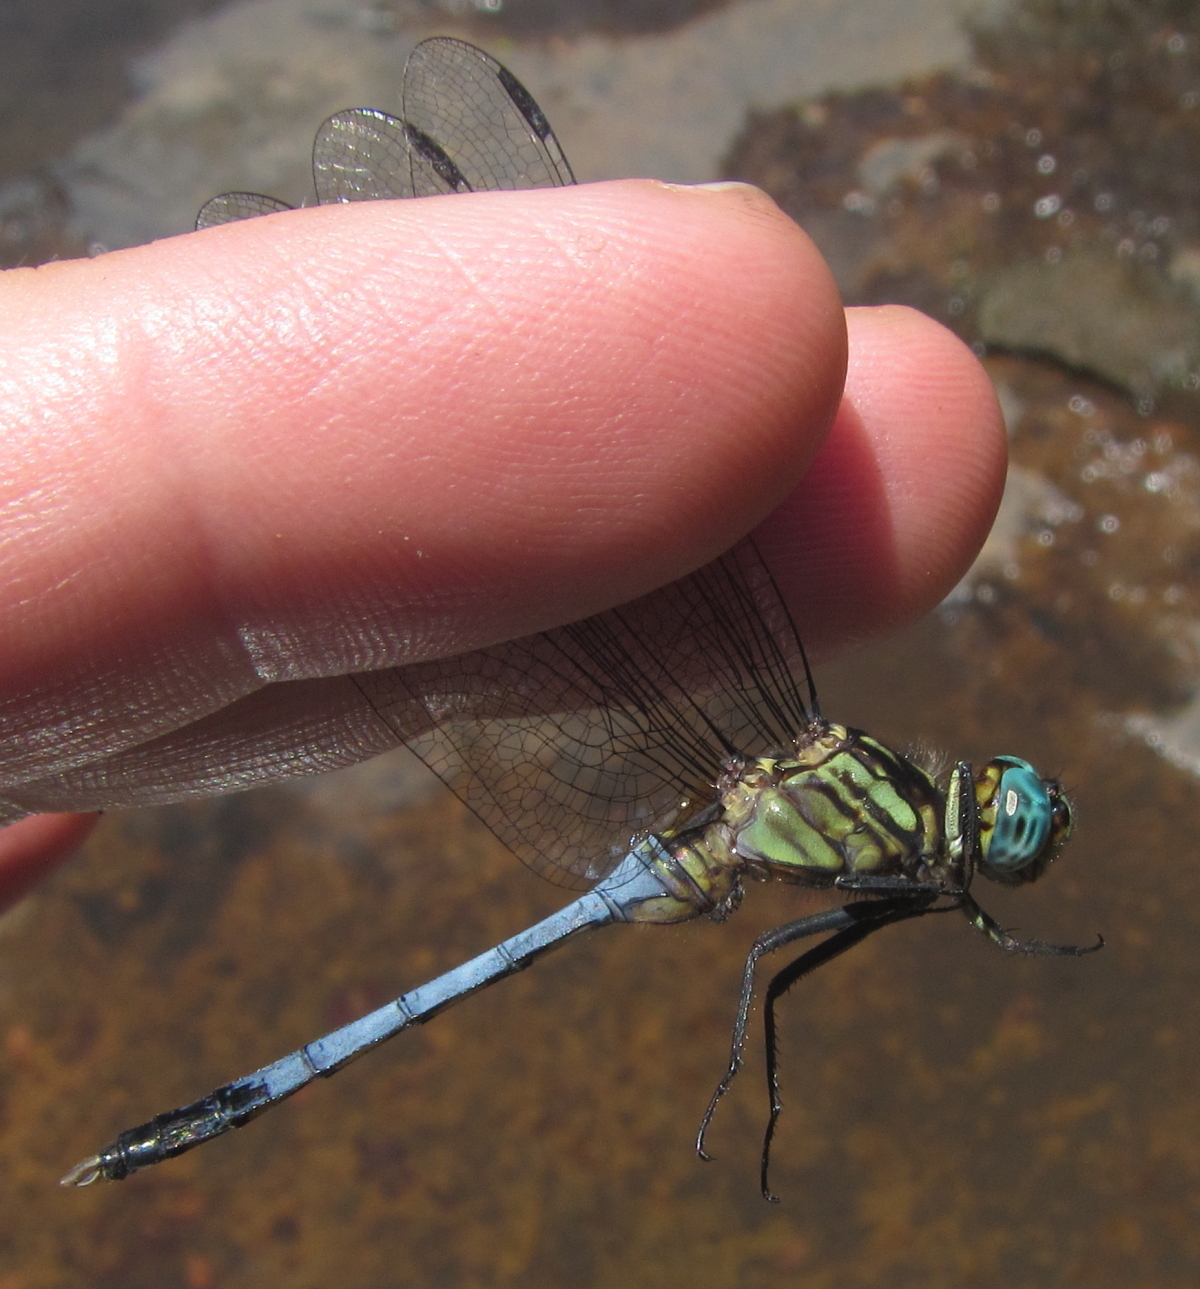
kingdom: Animalia
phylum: Arthropoda
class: Insecta
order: Odonata
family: Libellulidae
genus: Orthetrum
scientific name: Orthetrum julia
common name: Julia skimmer
